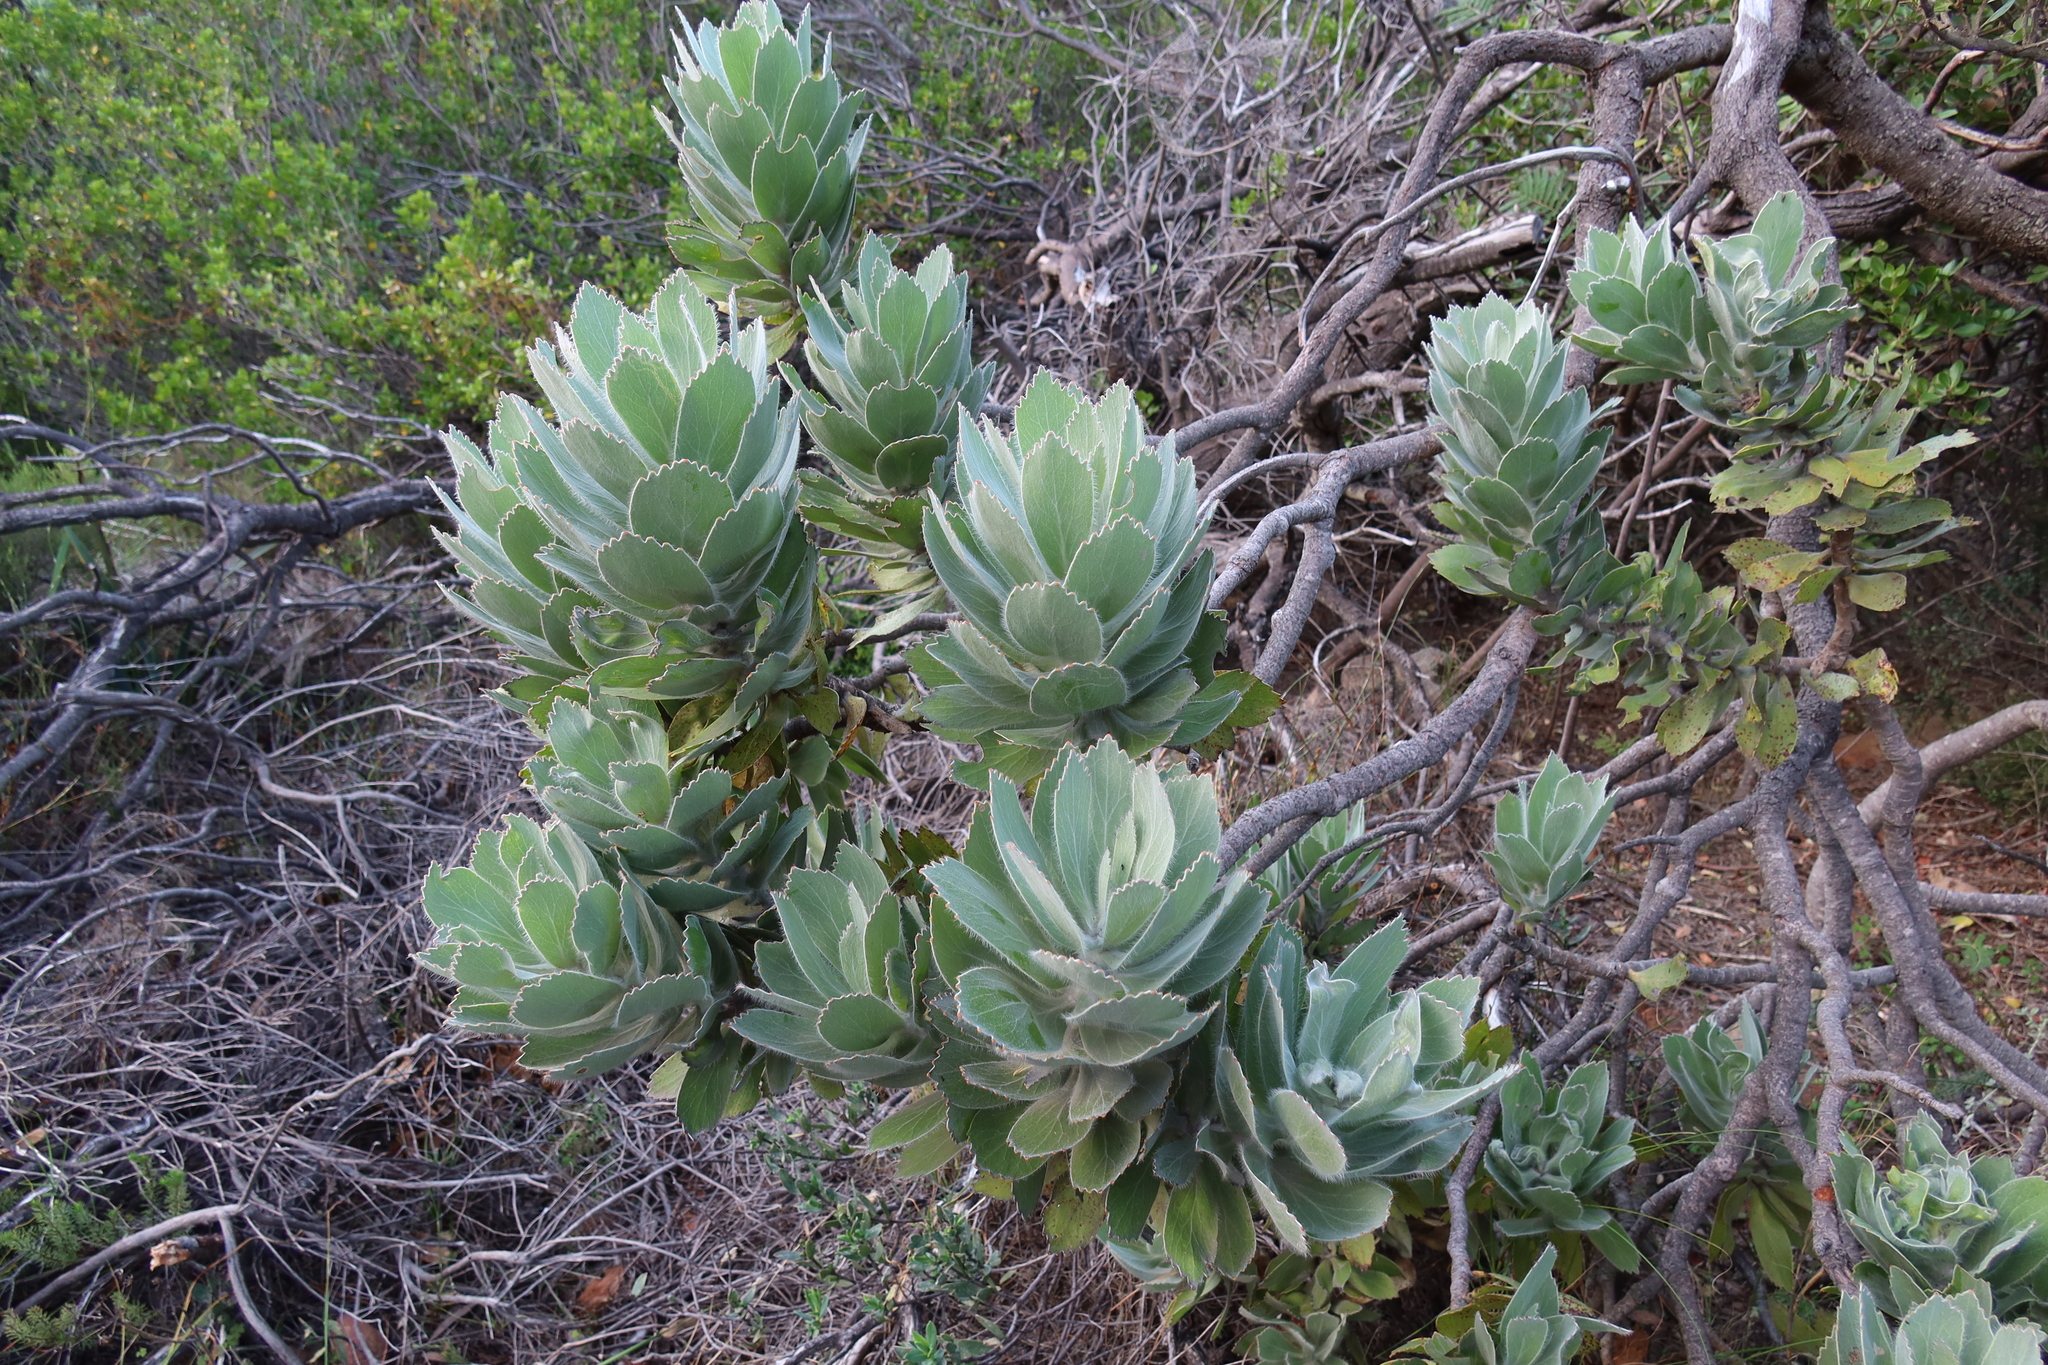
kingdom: Plantae
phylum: Tracheophyta
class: Magnoliopsida
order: Proteales
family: Proteaceae
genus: Leucospermum
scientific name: Leucospermum conocarpodendron
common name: Tree pincushion
